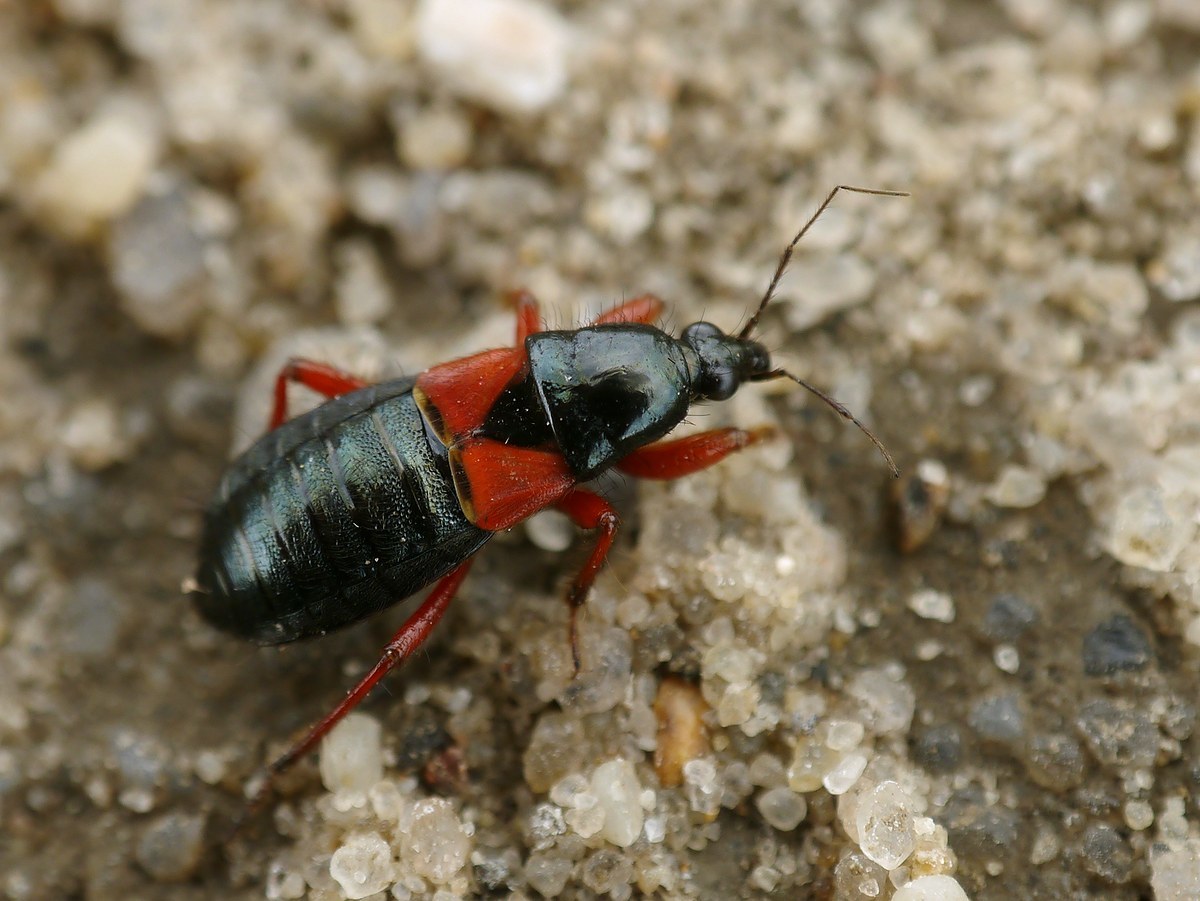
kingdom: Animalia
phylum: Arthropoda
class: Insecta
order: Hemiptera
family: Nabidae
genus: Prostemma
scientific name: Prostemma guttula
